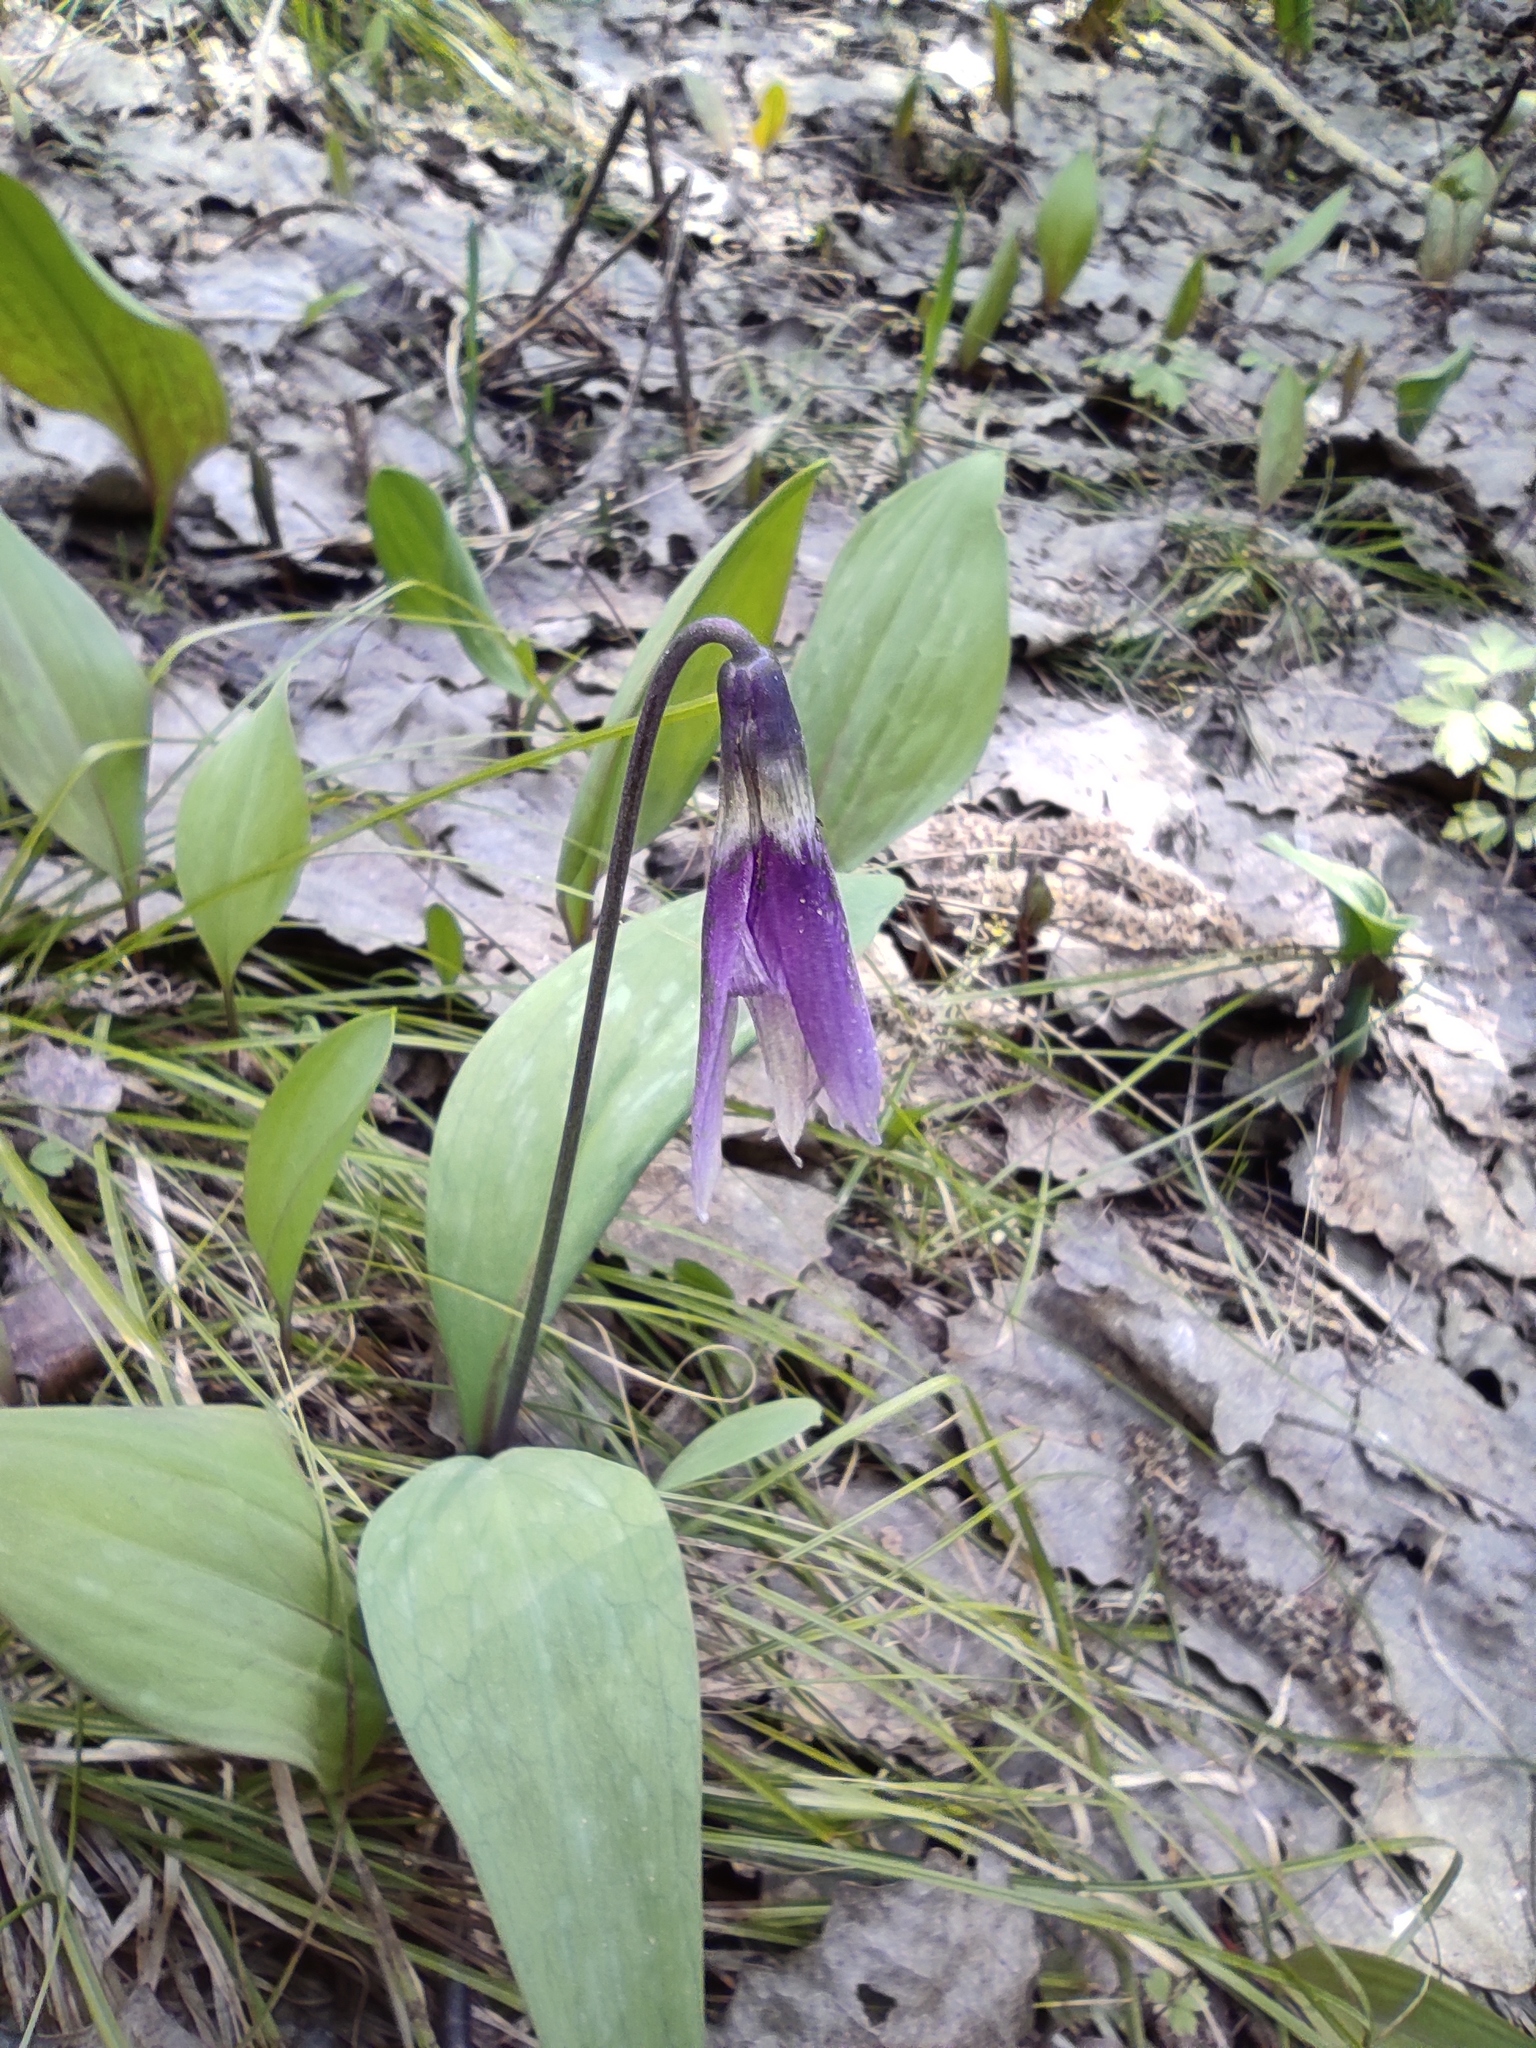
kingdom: Plantae
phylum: Tracheophyta
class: Liliopsida
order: Liliales
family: Liliaceae
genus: Erythronium
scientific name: Erythronium sibiricum
